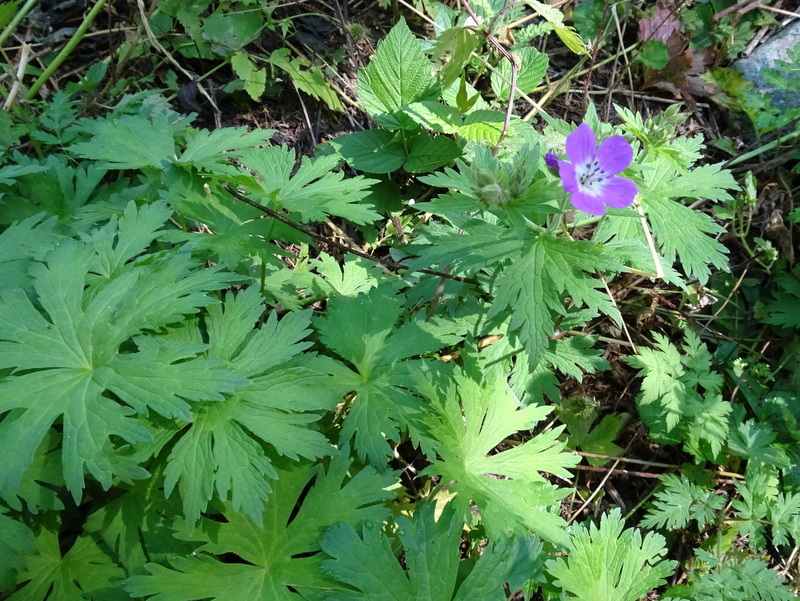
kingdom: Plantae
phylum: Tracheophyta
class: Magnoliopsida
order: Geraniales
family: Geraniaceae
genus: Geranium
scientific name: Geranium sylvaticum
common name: Wood crane's-bill
